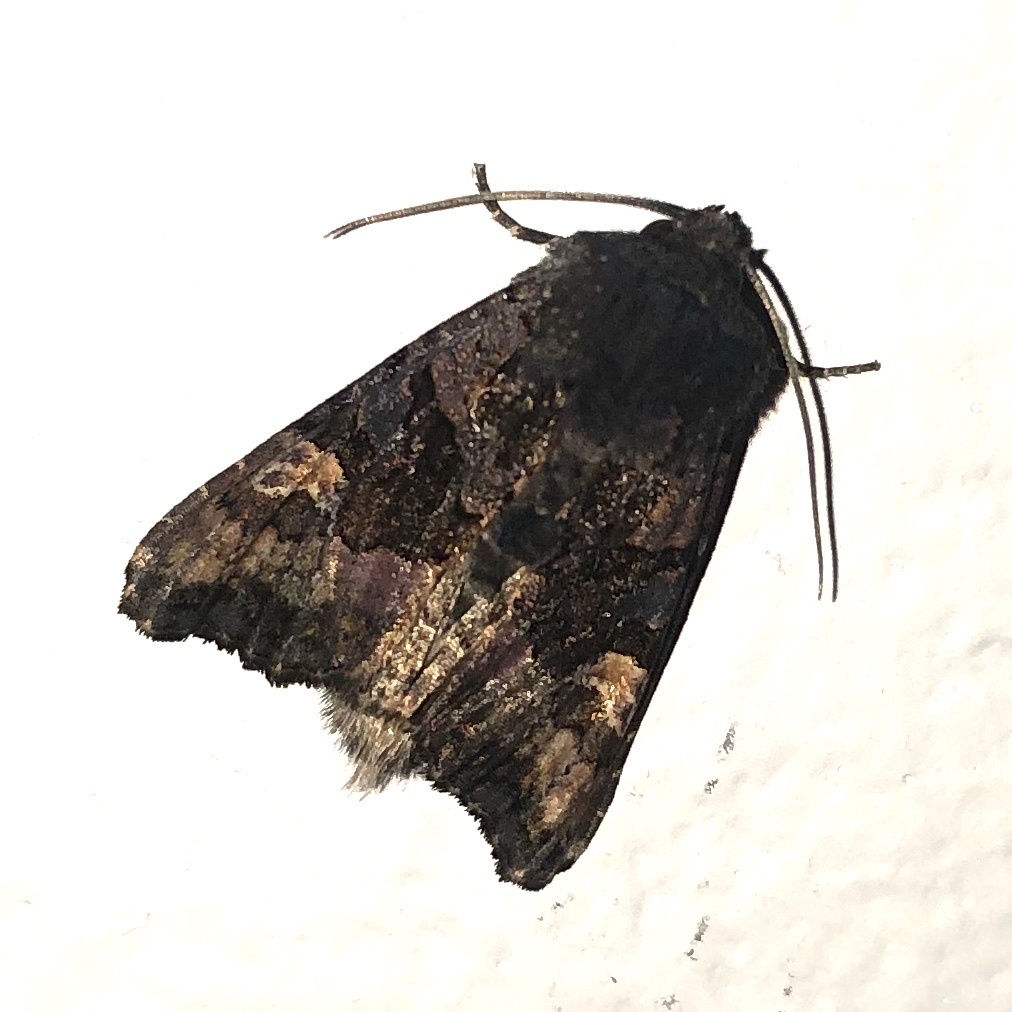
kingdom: Animalia
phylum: Arthropoda
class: Insecta
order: Lepidoptera
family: Noctuidae
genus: Euplexia
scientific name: Euplexia benesimilis
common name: American angle shades
